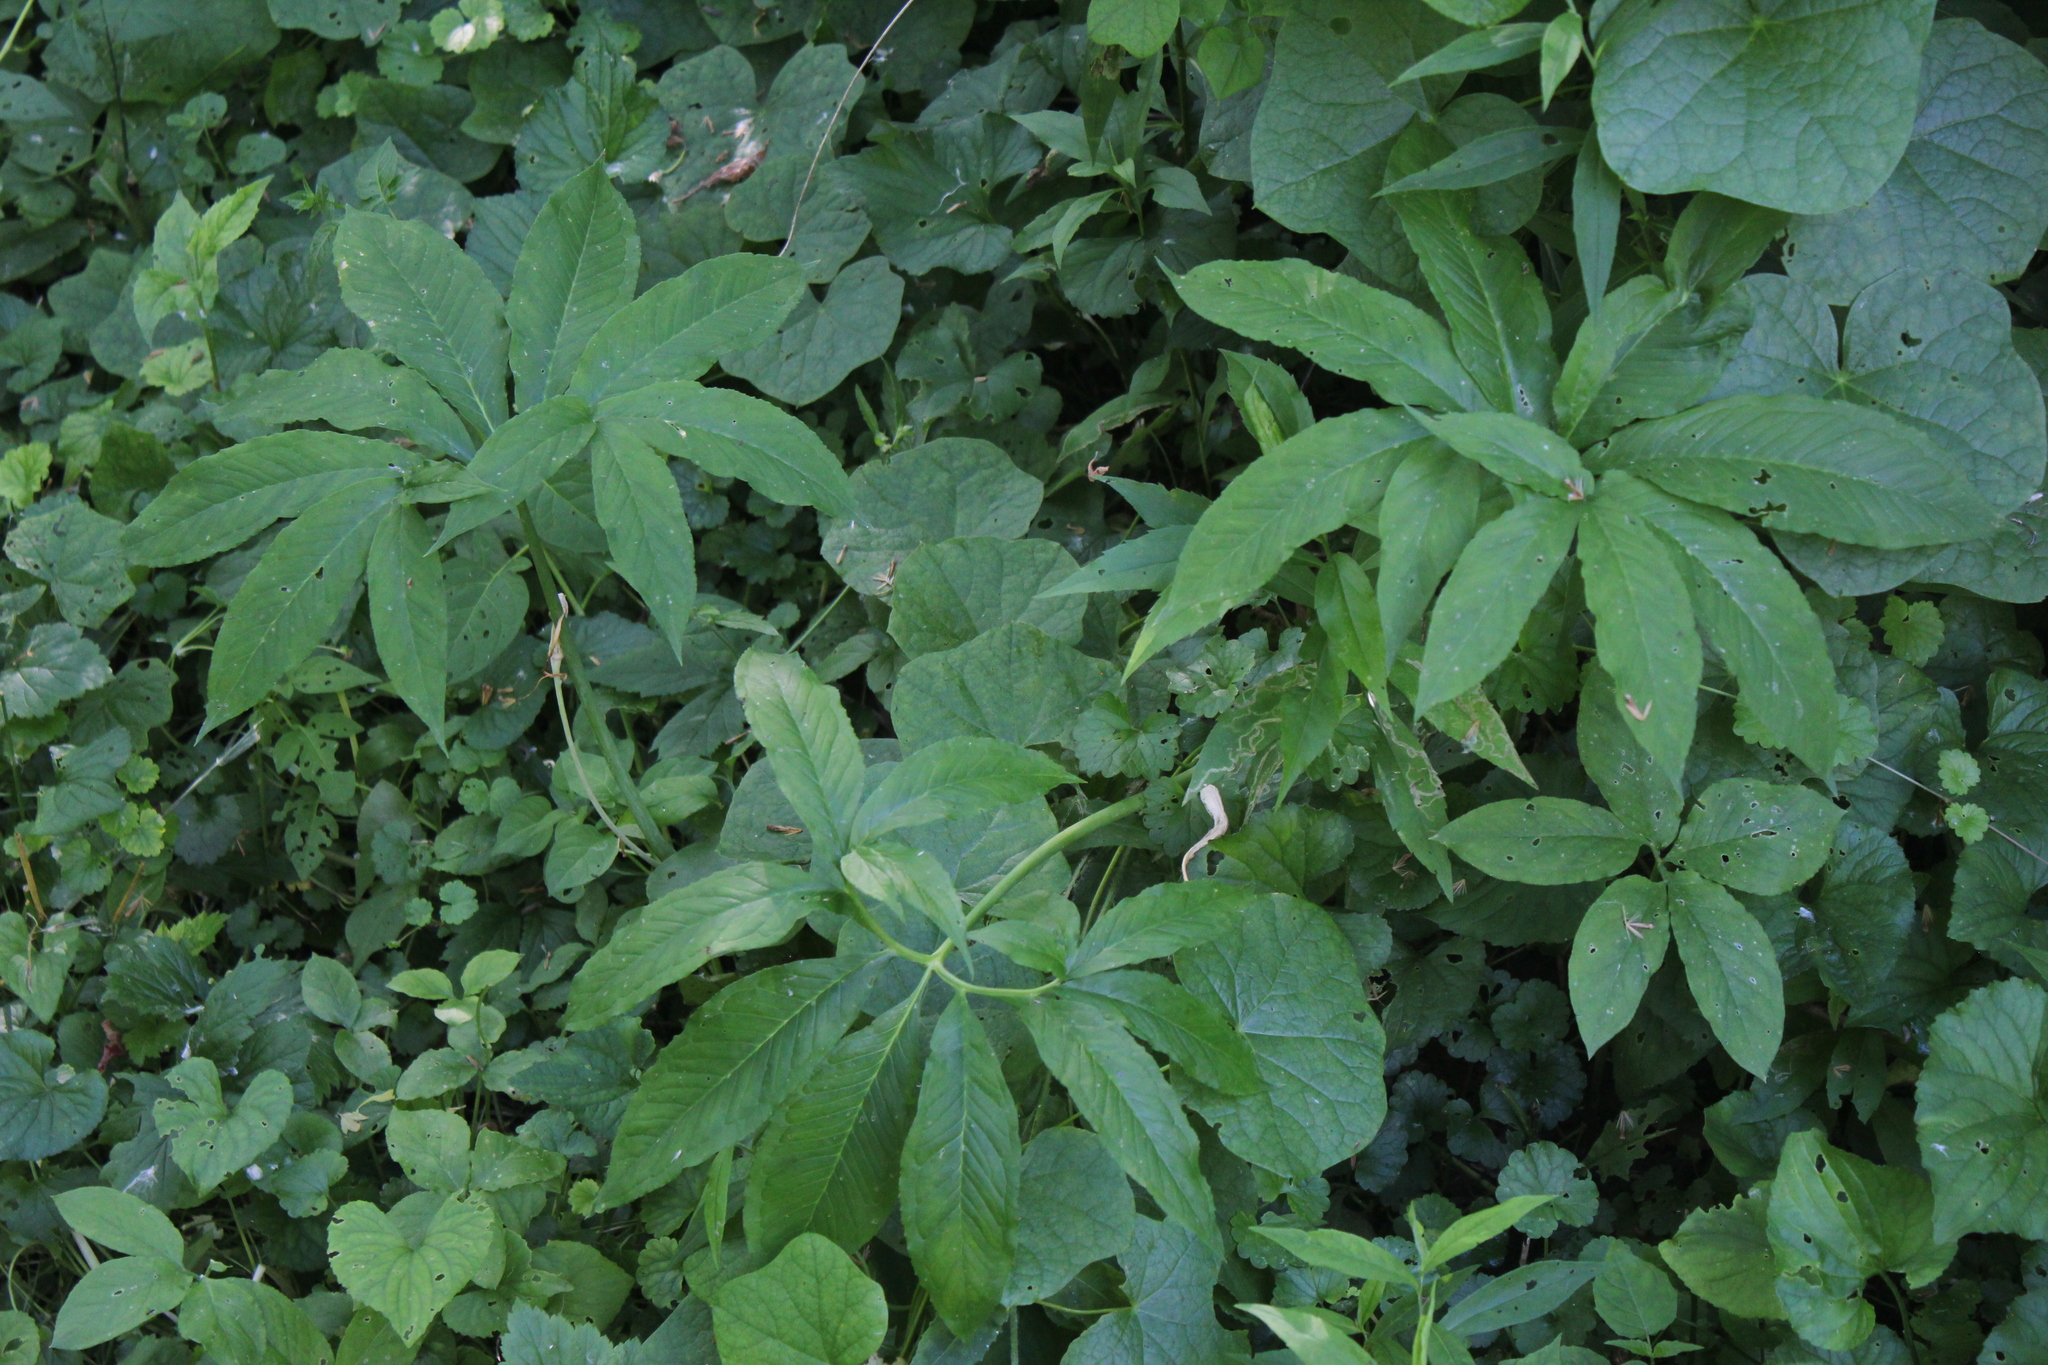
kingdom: Plantae
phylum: Tracheophyta
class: Liliopsida
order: Alismatales
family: Araceae
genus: Arisaema
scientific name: Arisaema dracontium
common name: Dragon-arum
